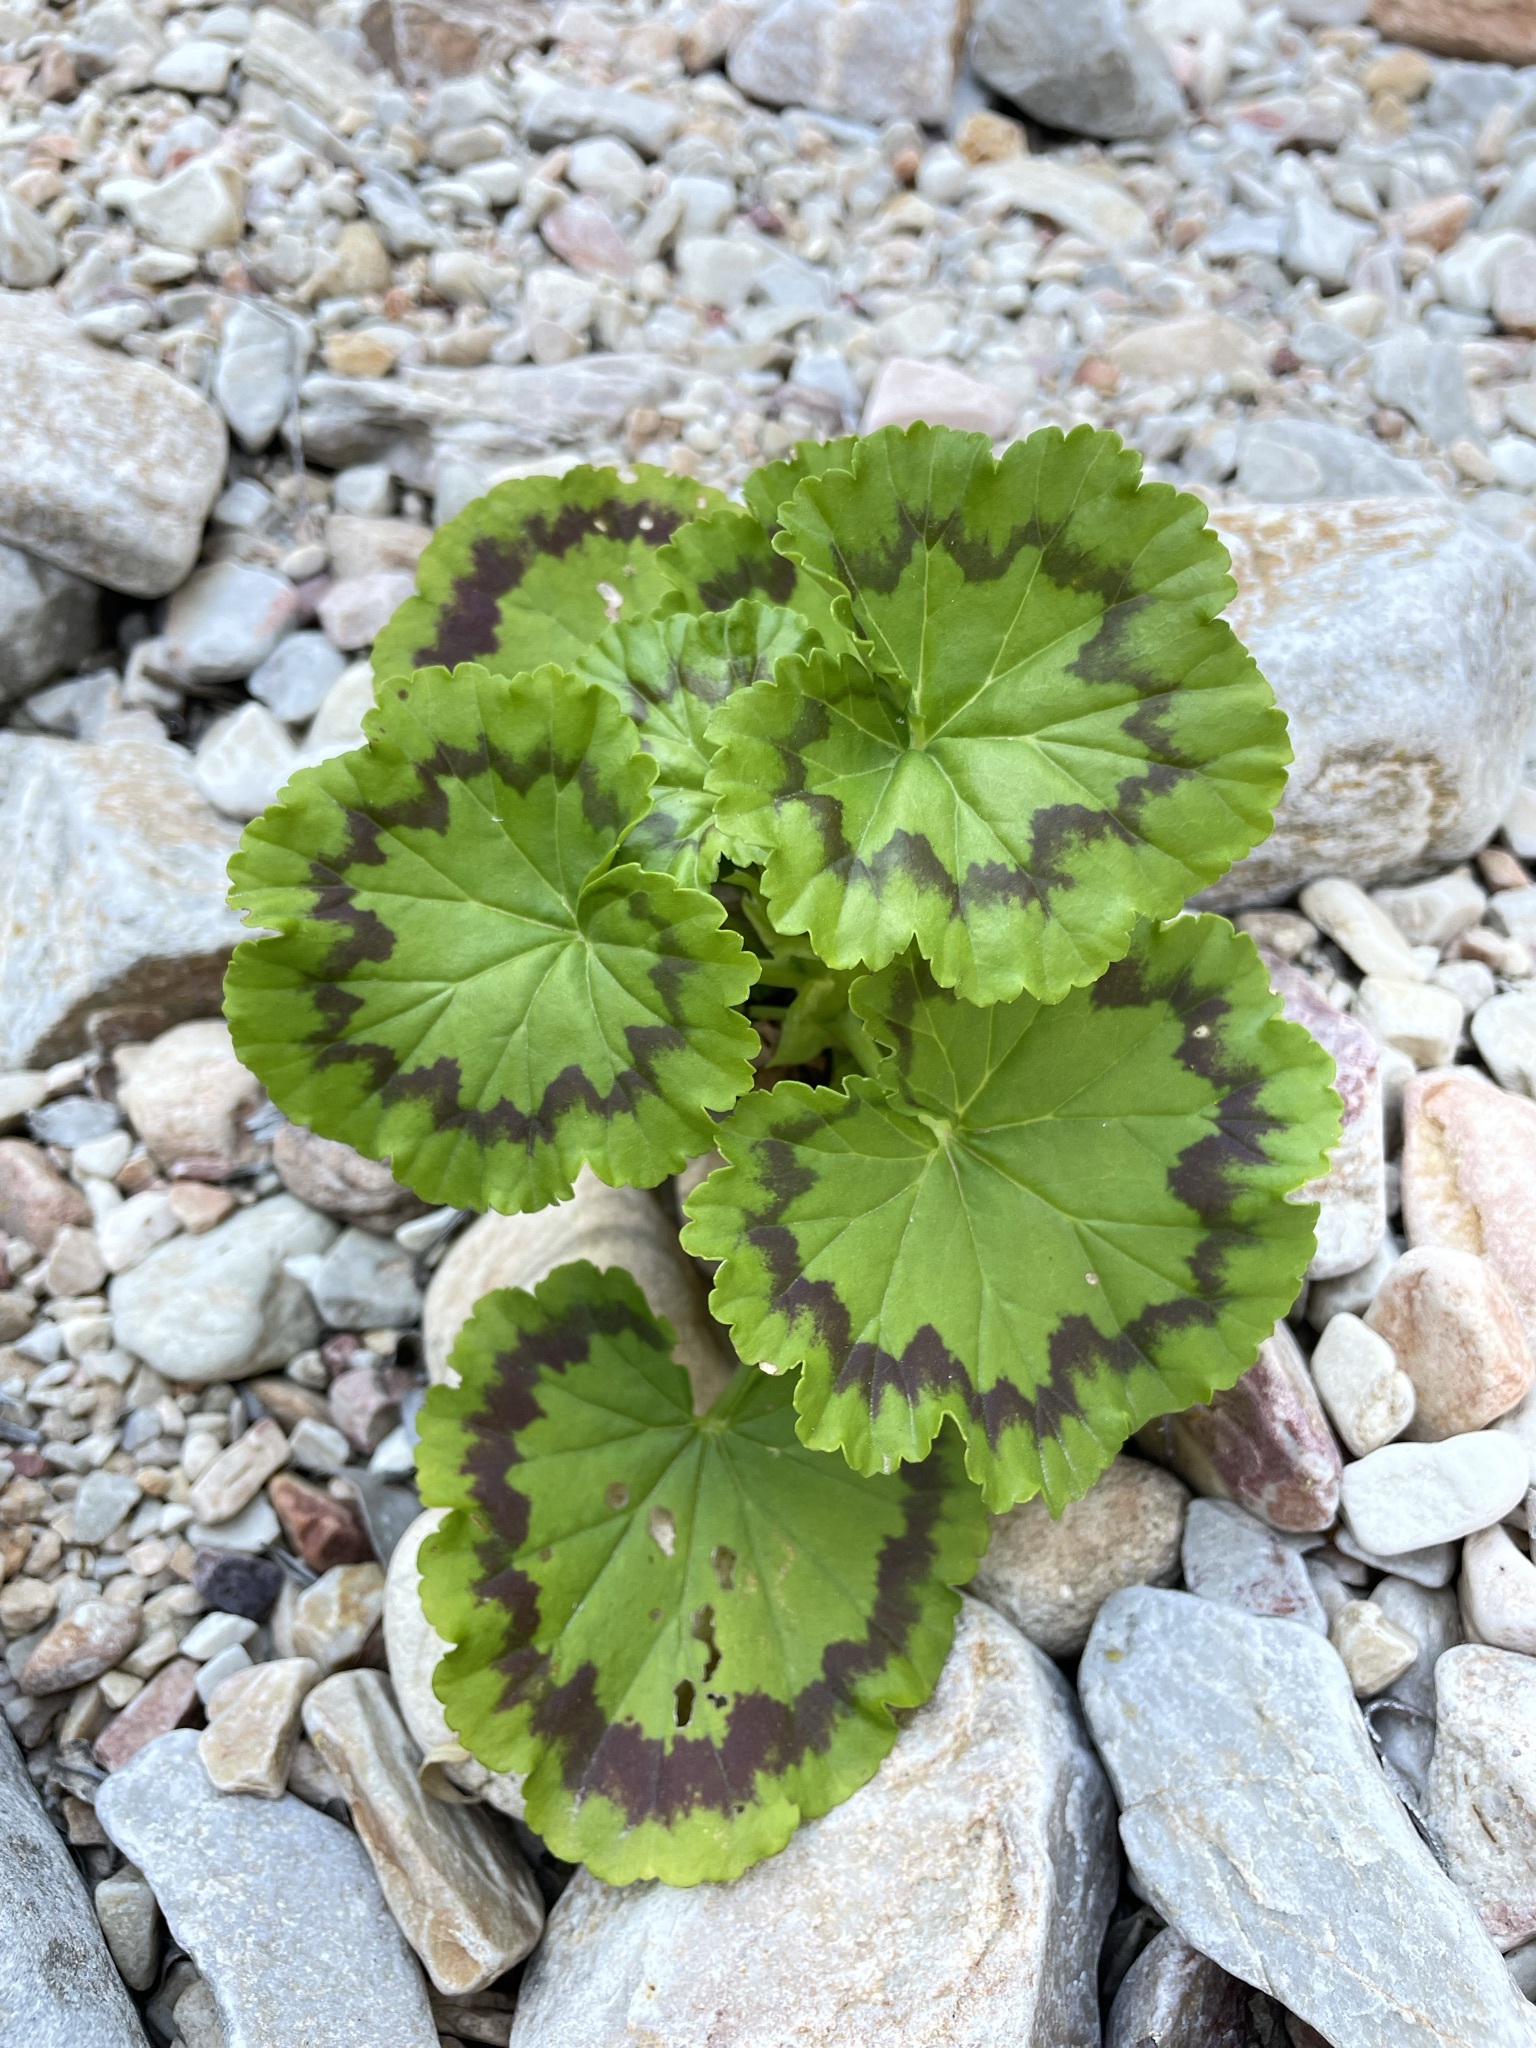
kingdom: Plantae
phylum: Tracheophyta
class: Magnoliopsida
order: Geraniales
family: Geraniaceae
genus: Pelargonium
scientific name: Pelargonium zonale
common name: Horseshoe geranium
